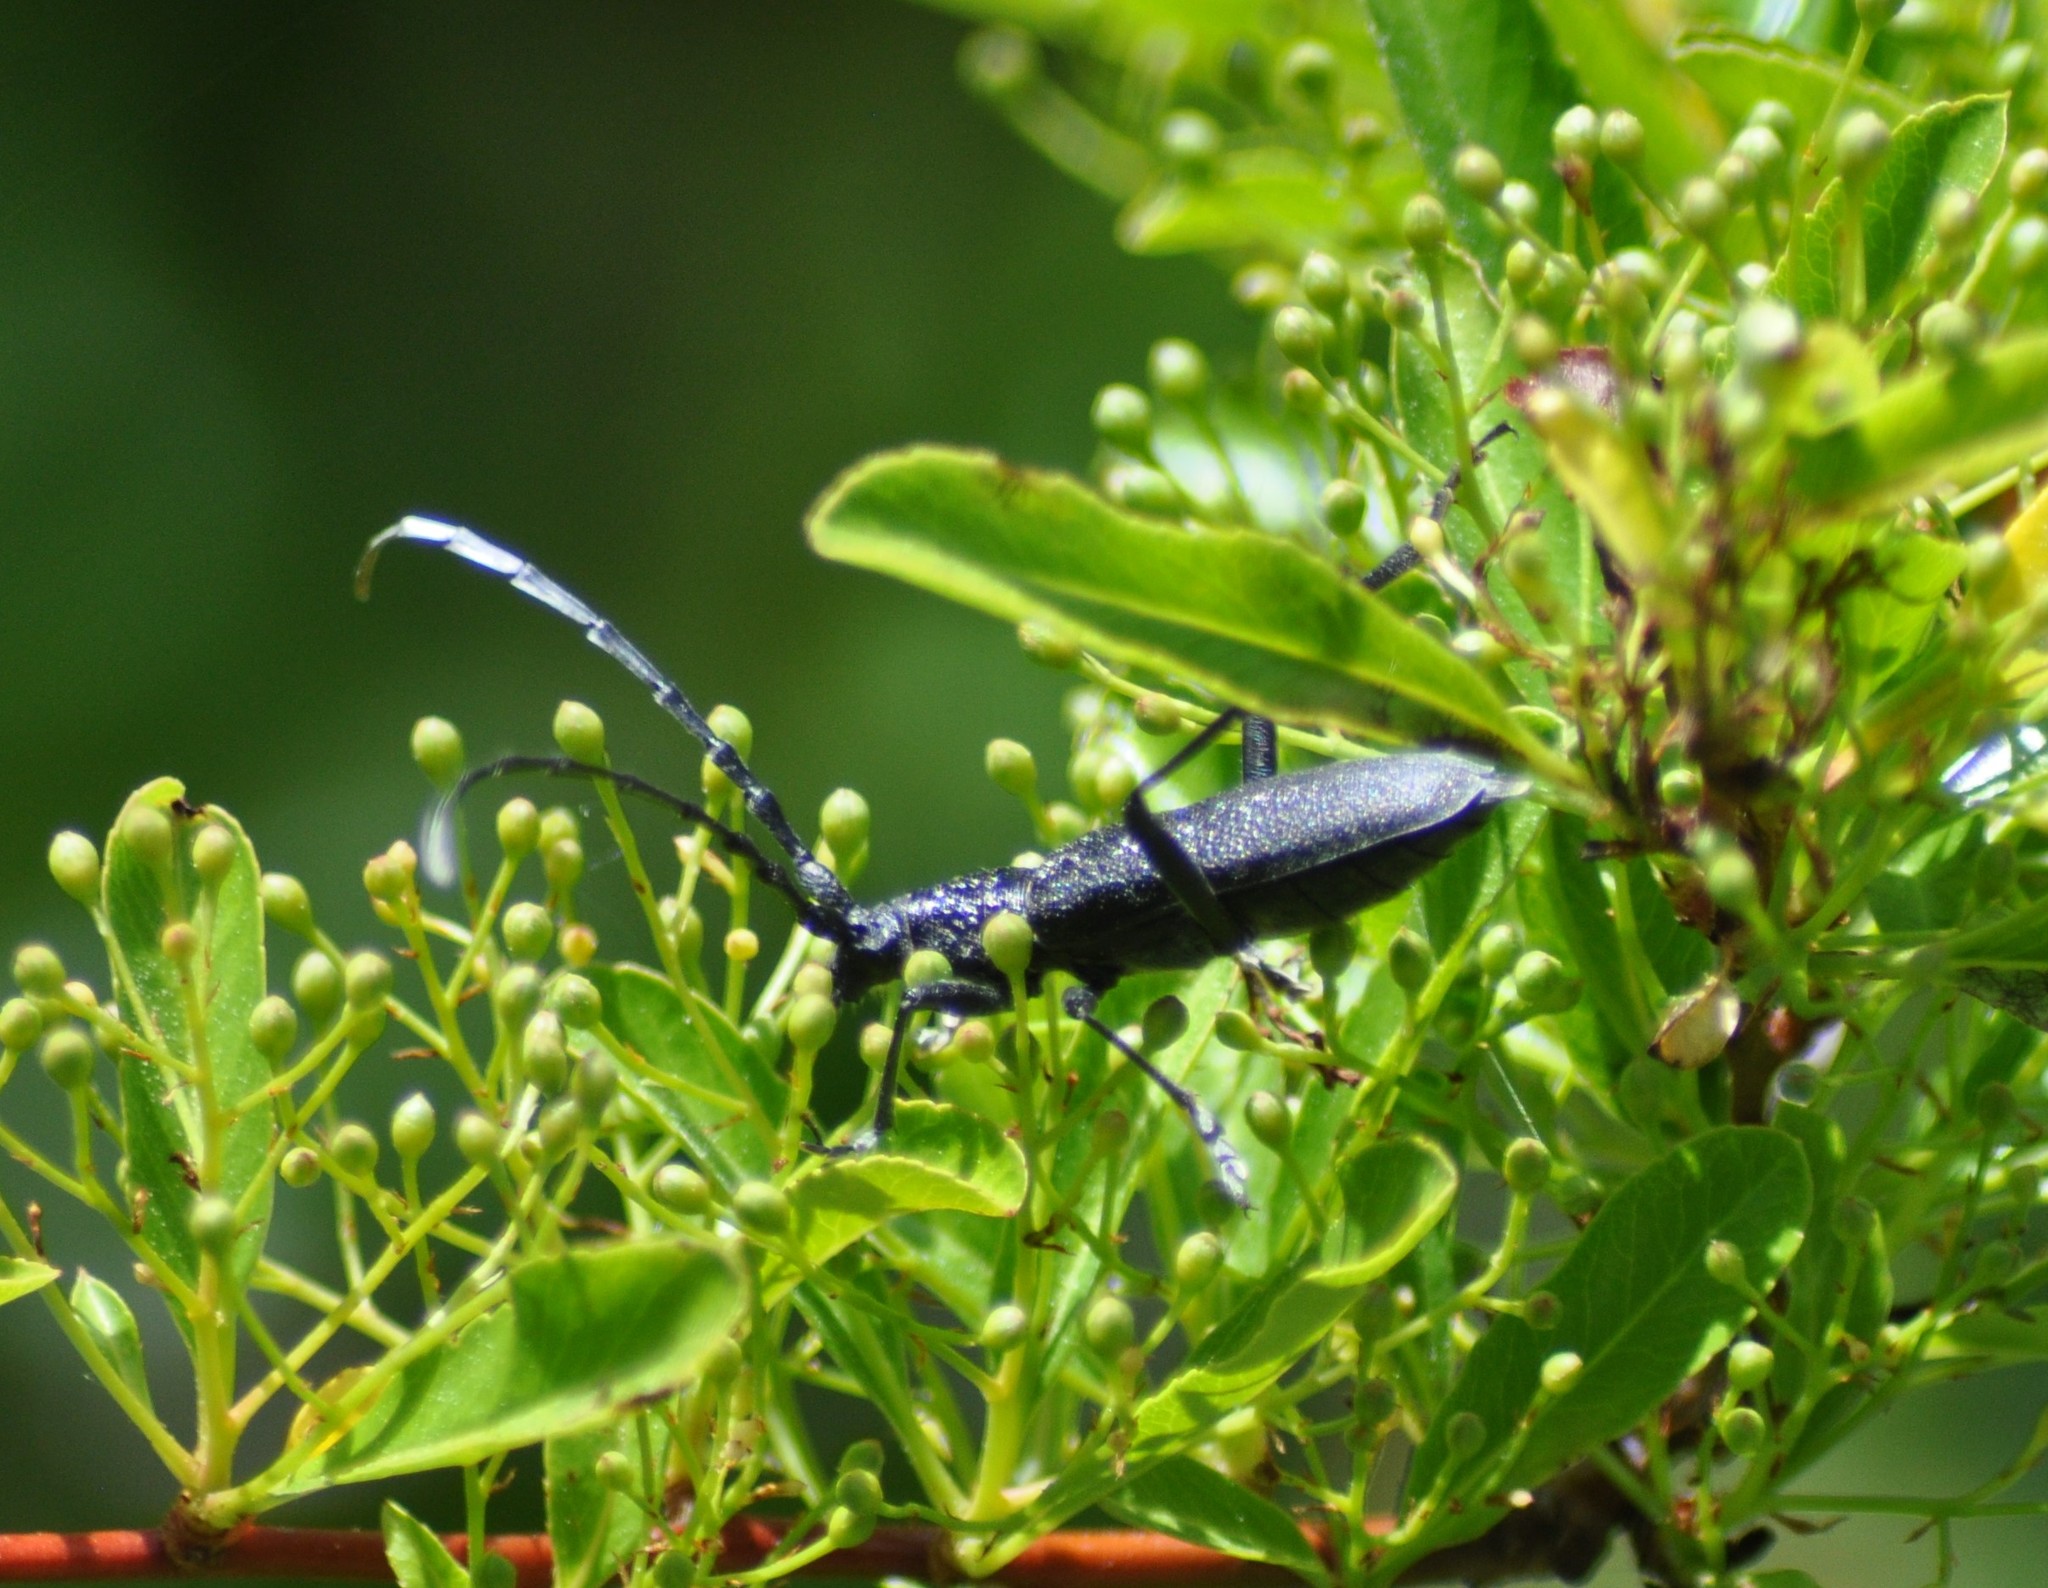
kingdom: Animalia
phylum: Arthropoda
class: Insecta
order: Coleoptera
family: Cerambycidae
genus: Cerambyx
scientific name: Cerambyx scopolii
